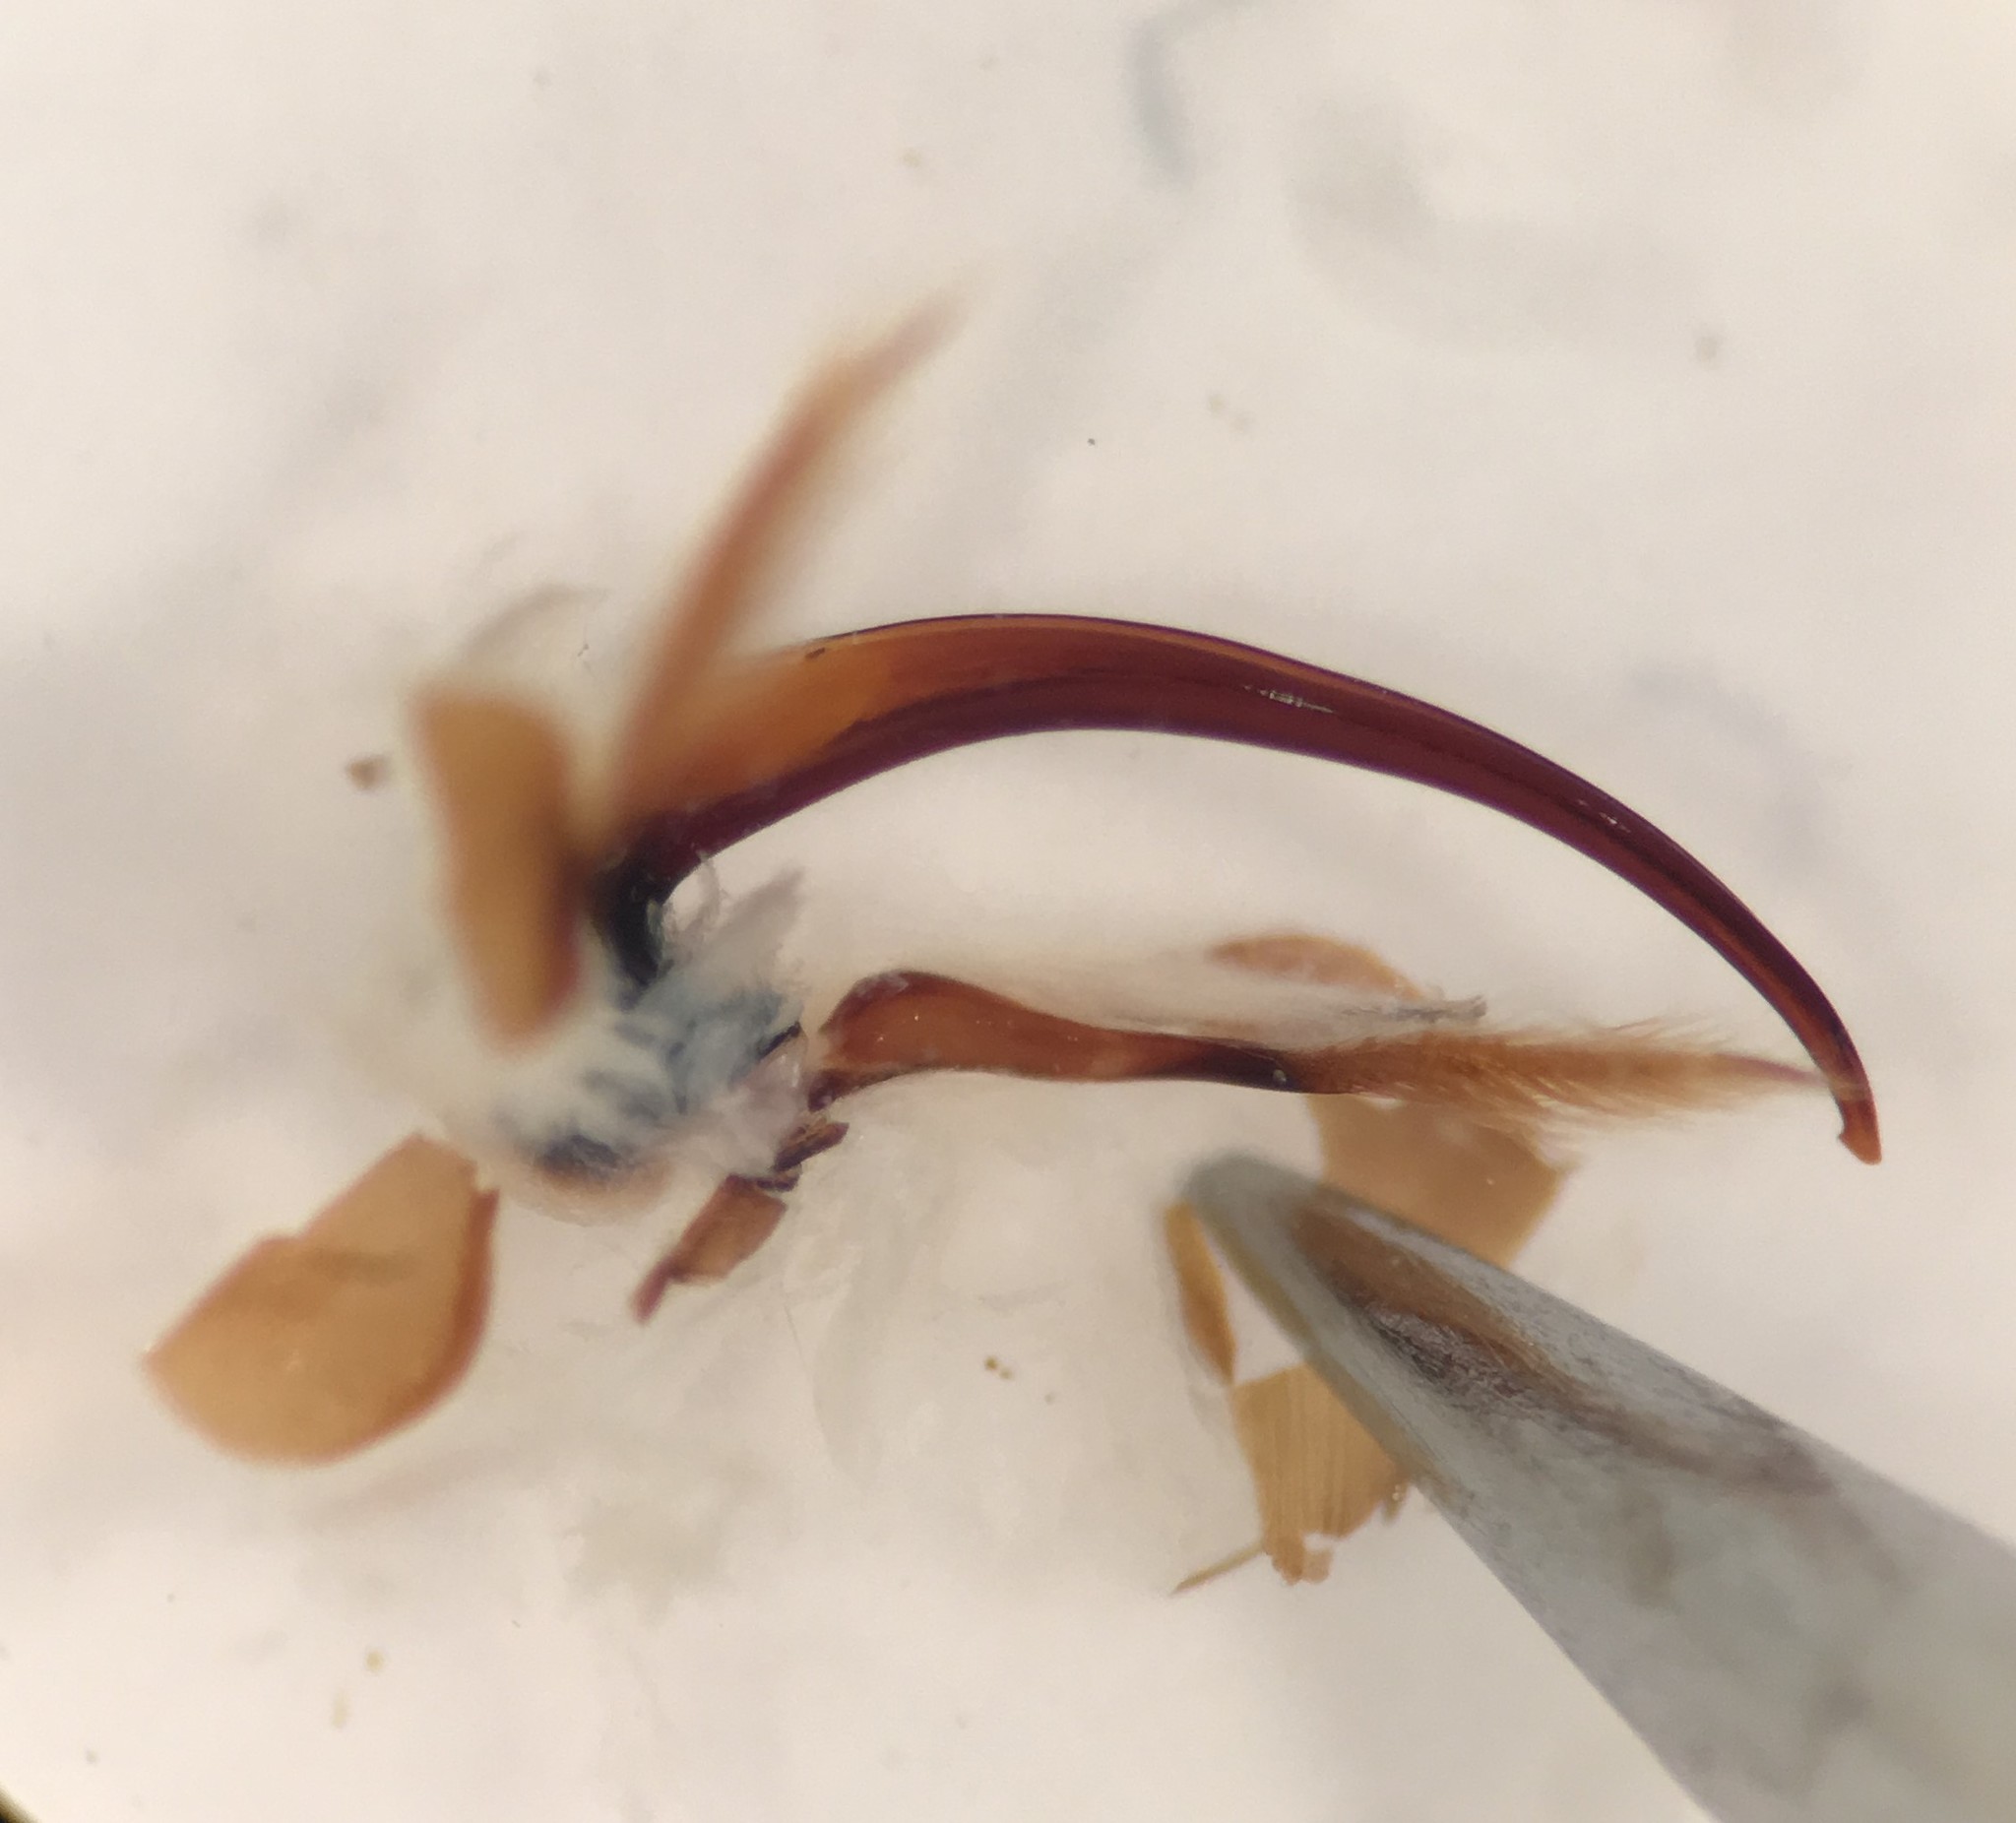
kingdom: Animalia
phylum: Arthropoda
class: Insecta
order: Coleoptera
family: Dytiscidae
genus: Platambus
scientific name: Platambus flavovittatus
